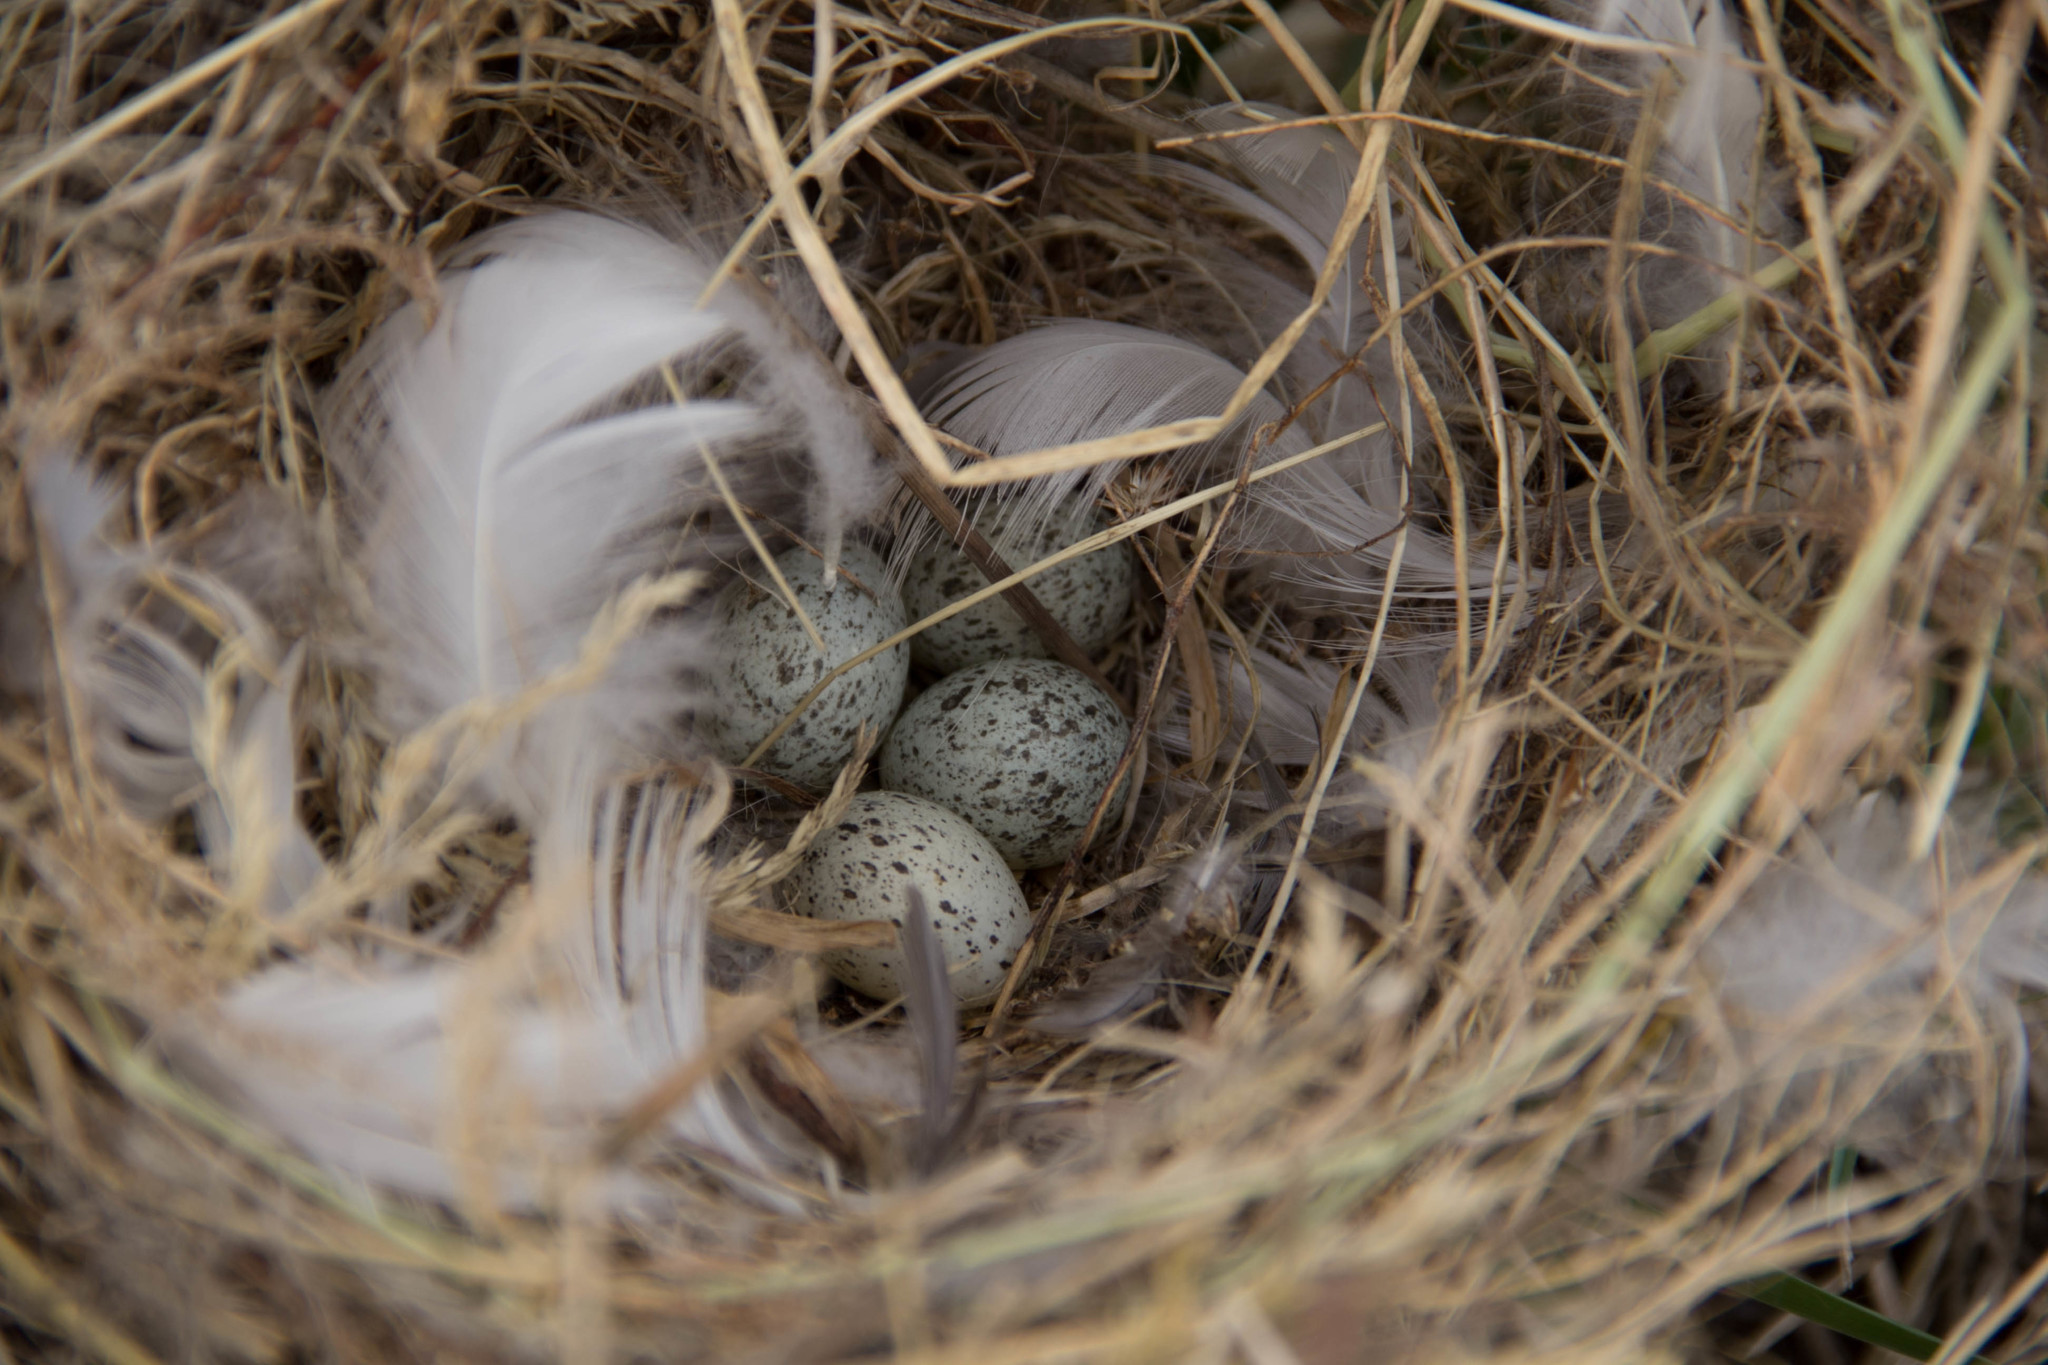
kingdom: Animalia
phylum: Chordata
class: Aves
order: Passeriformes
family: Passeridae
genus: Passer
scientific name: Passer domesticus
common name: House sparrow
